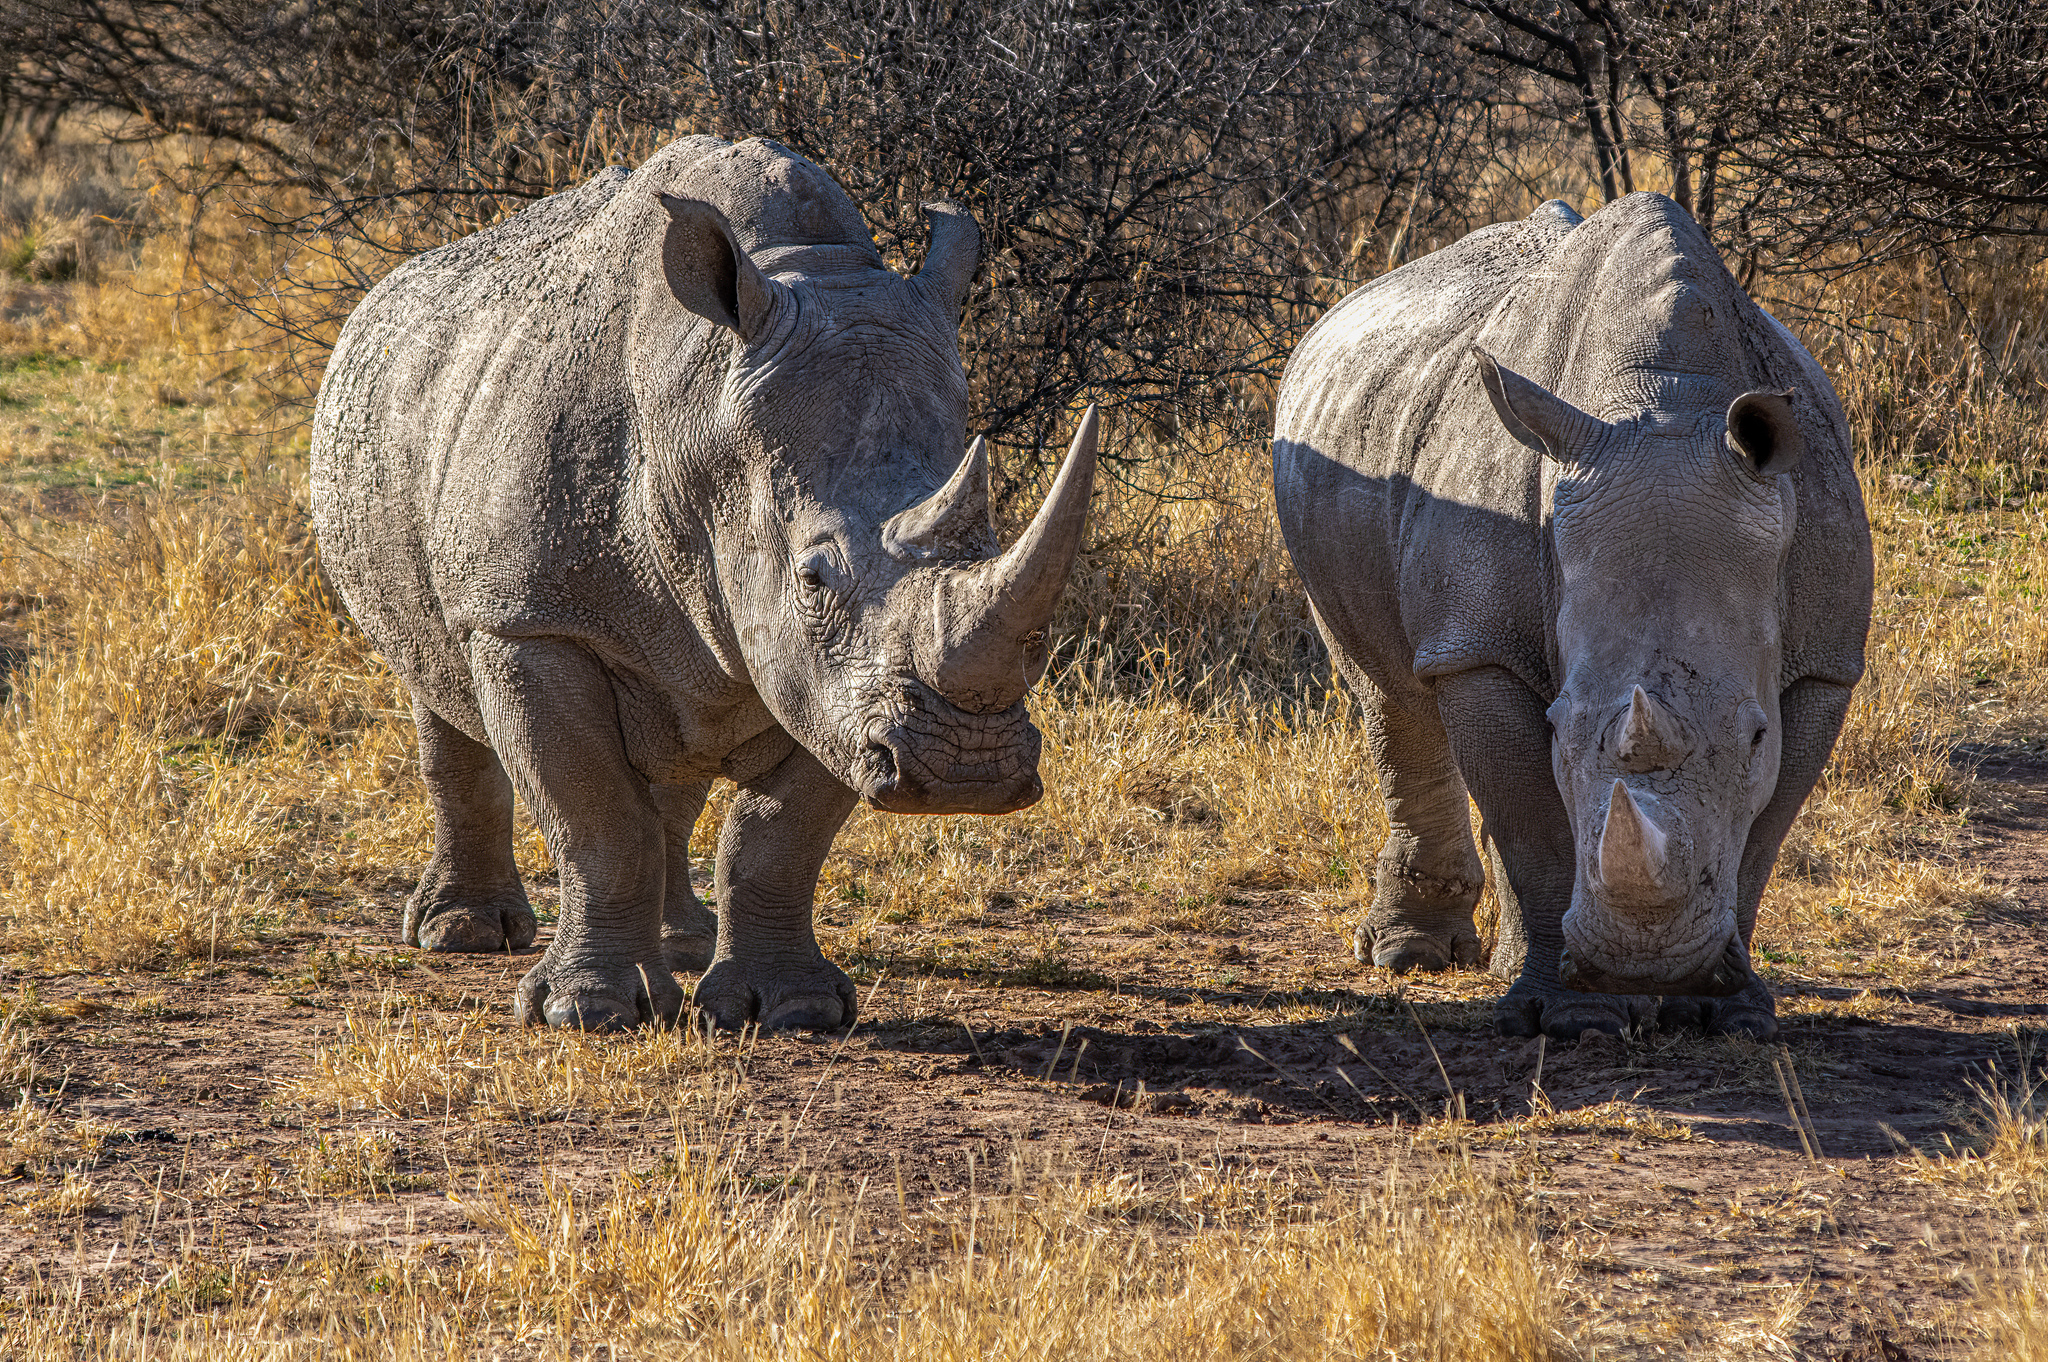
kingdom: Animalia
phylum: Chordata
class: Mammalia
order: Perissodactyla
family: Rhinocerotidae
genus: Ceratotherium
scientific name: Ceratotherium simum
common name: White rhinoceros
